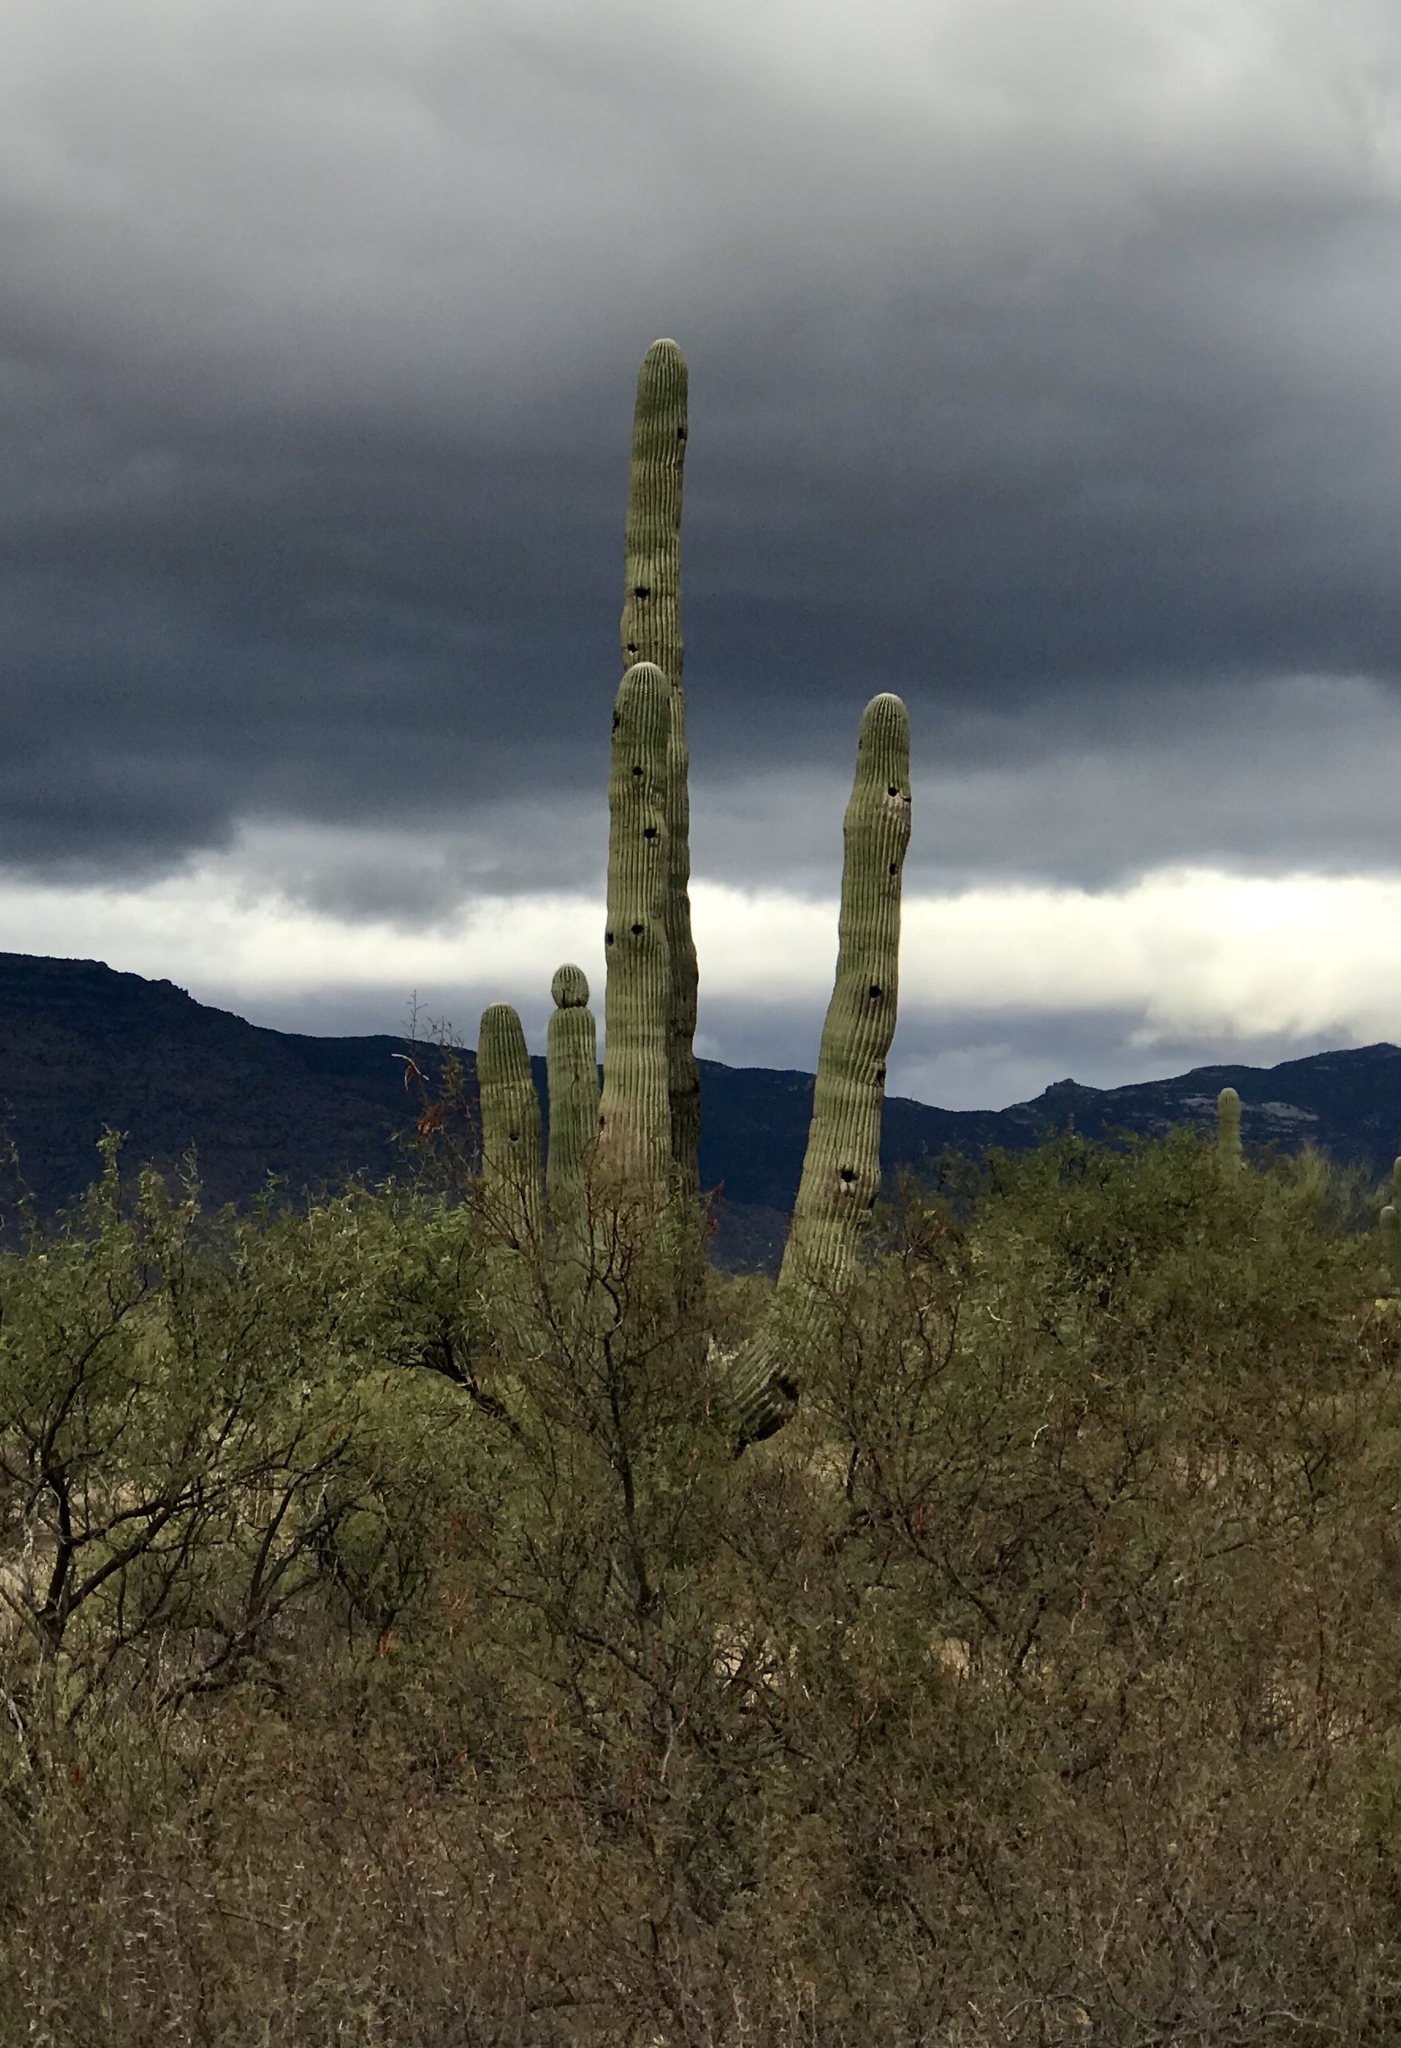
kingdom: Plantae
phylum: Tracheophyta
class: Magnoliopsida
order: Caryophyllales
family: Cactaceae
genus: Carnegiea
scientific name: Carnegiea gigantea
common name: Saguaro
